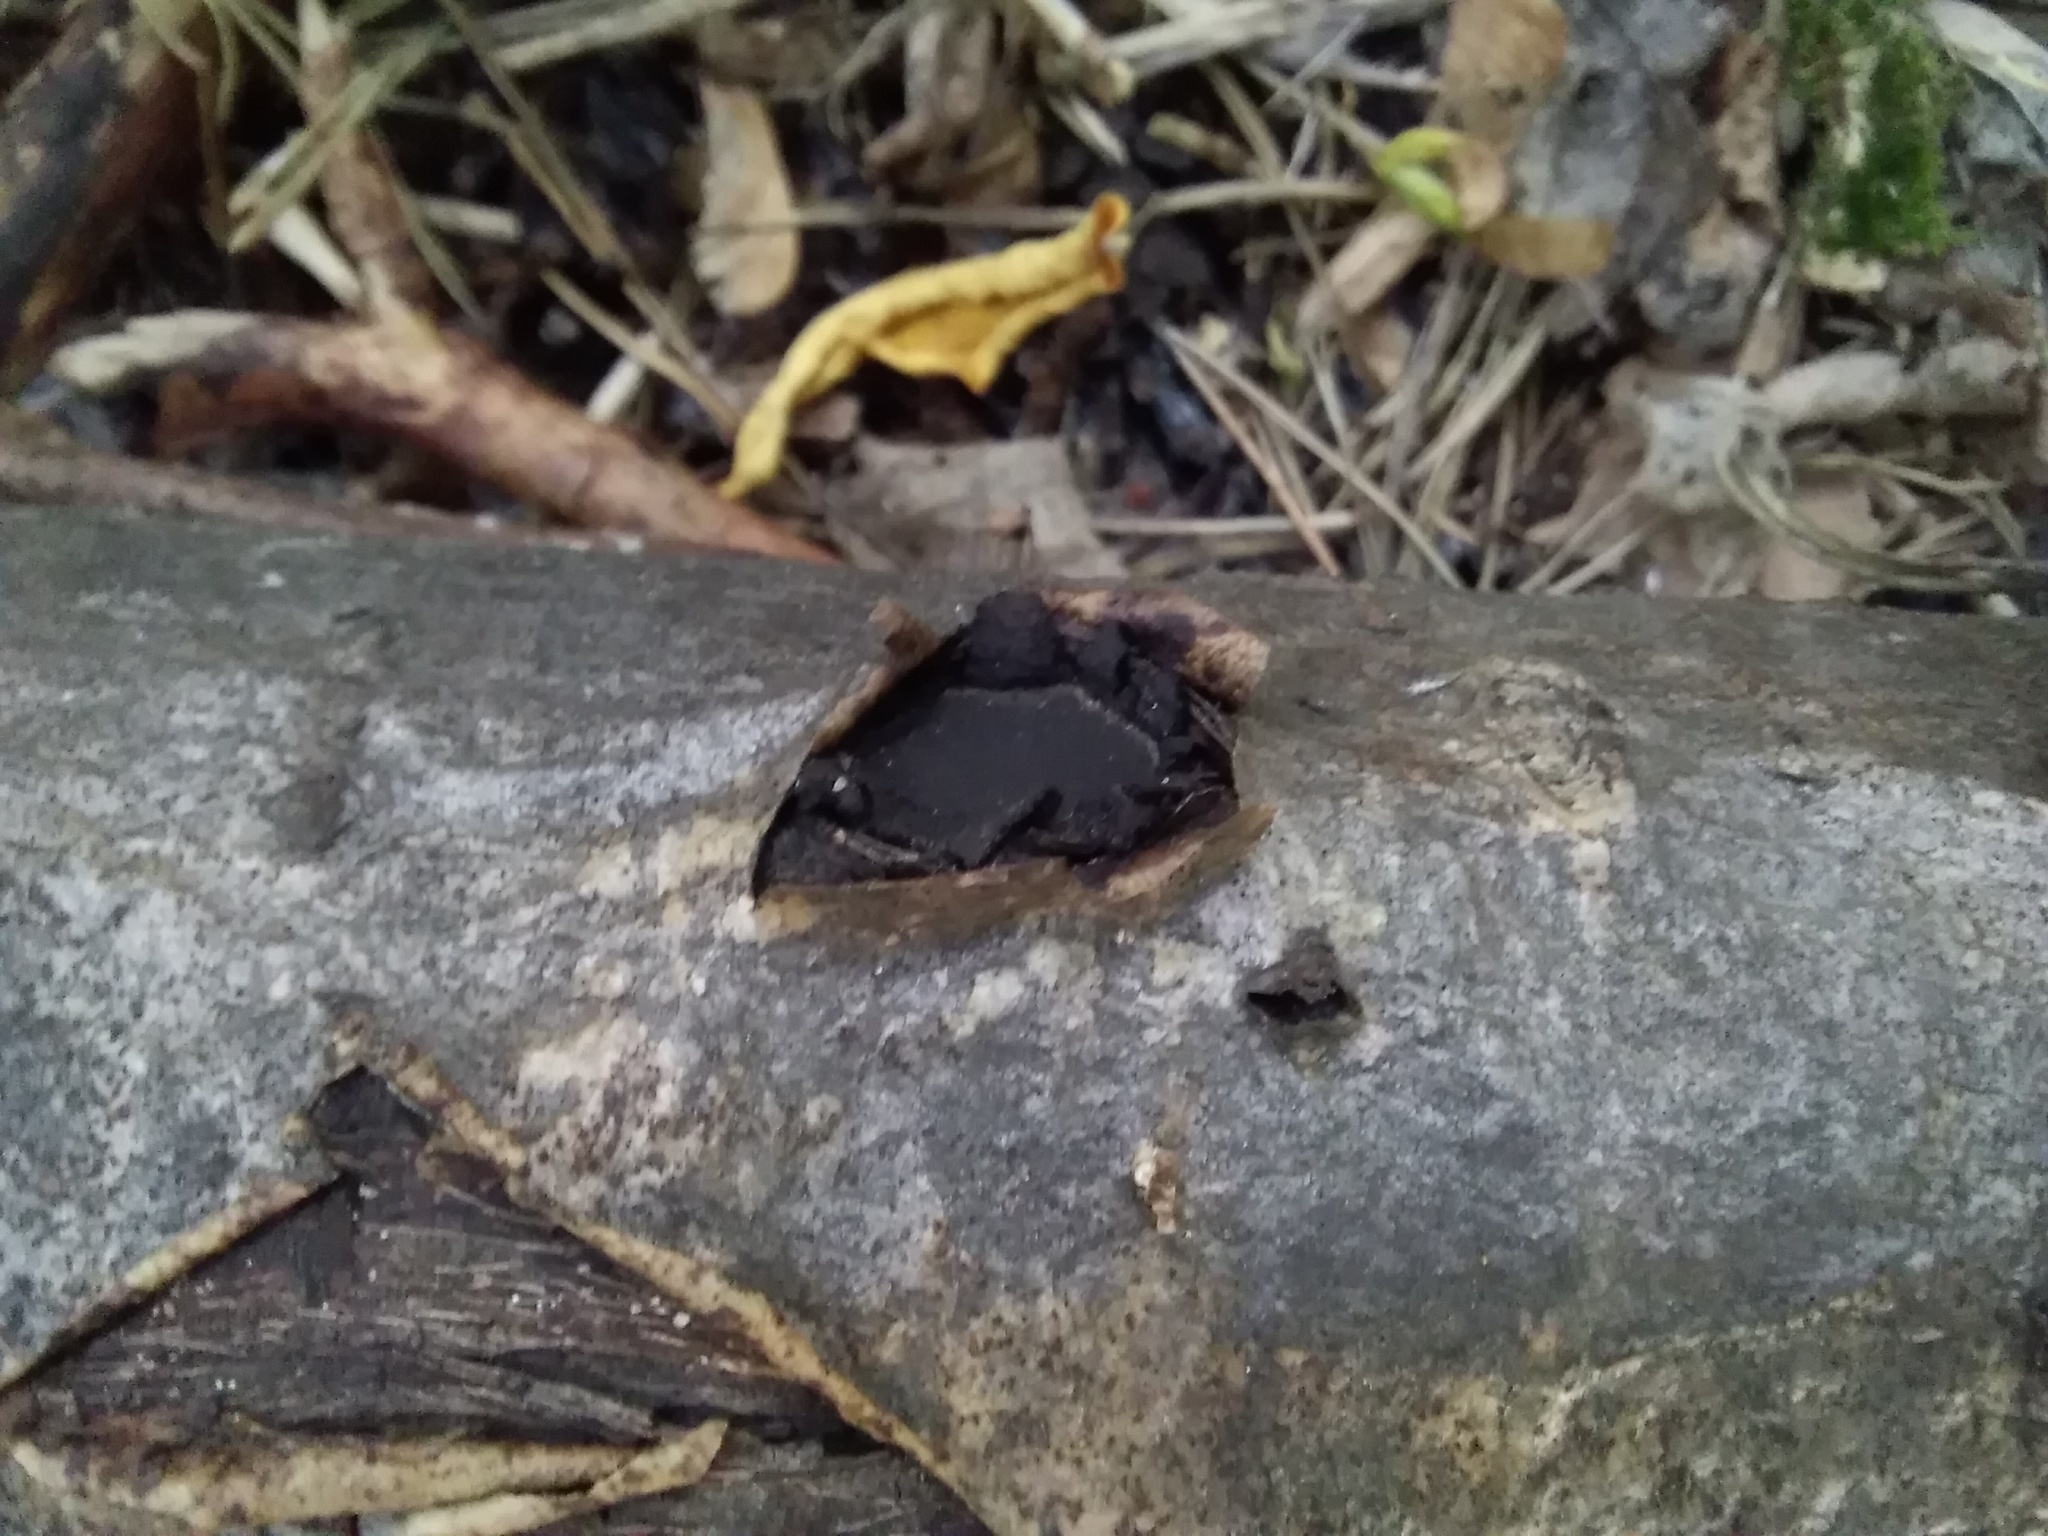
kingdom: Fungi
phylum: Ascomycota
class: Sordariomycetes
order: Xylariales
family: Graphostromataceae
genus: Biscogniauxia
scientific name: Biscogniauxia repanda
